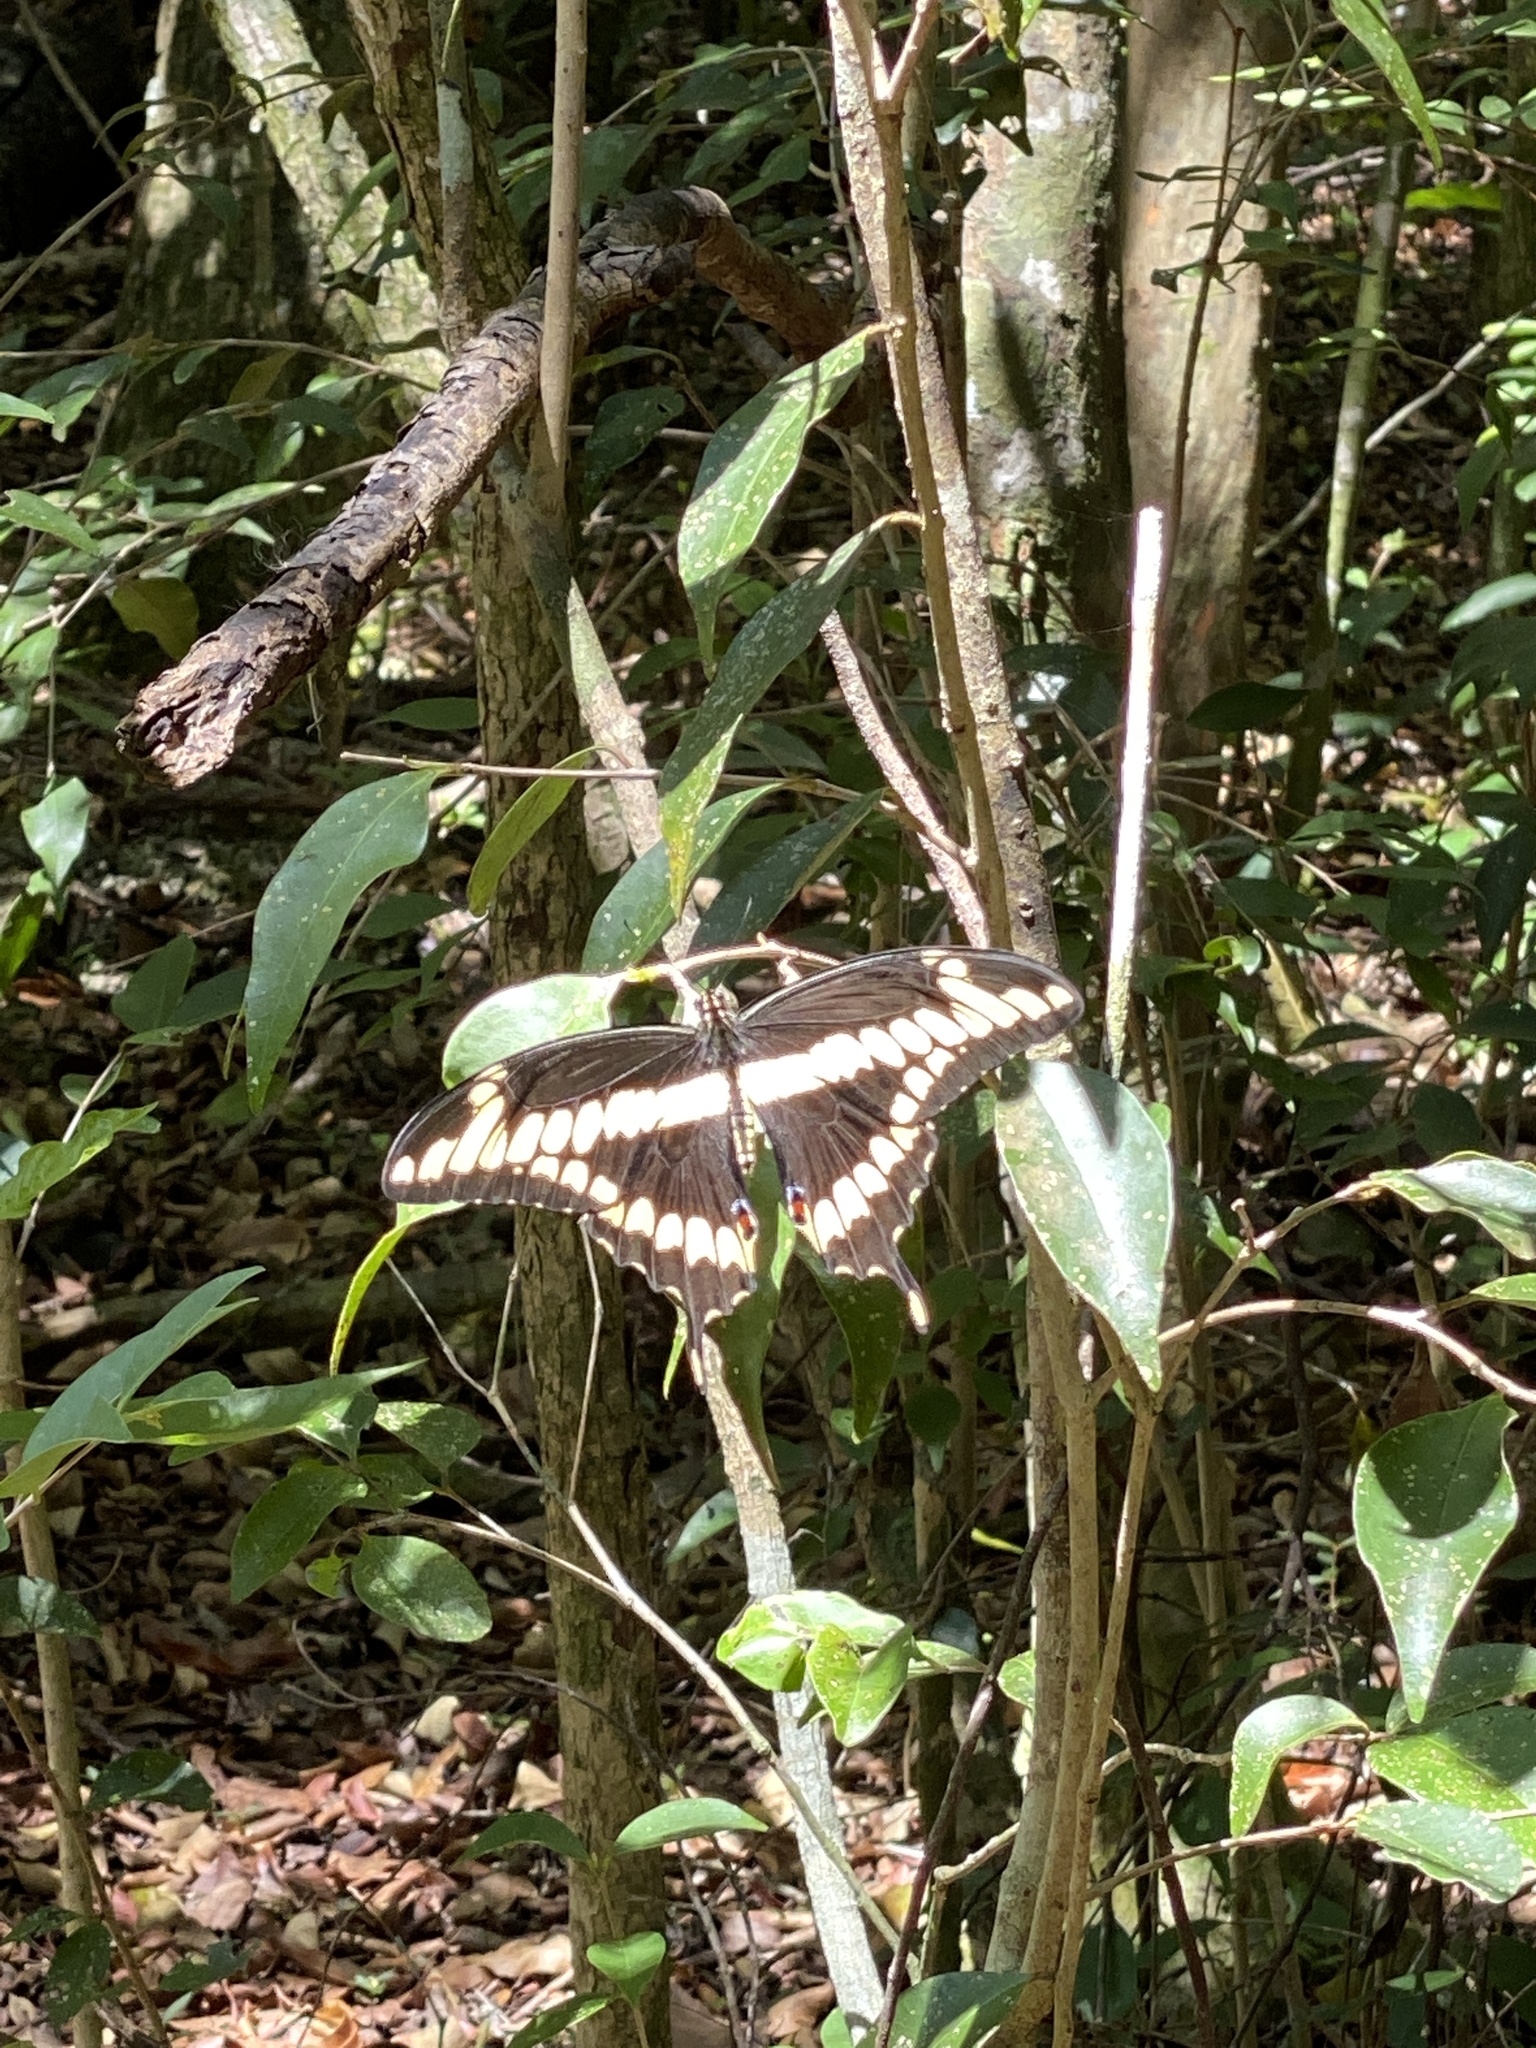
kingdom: Animalia
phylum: Arthropoda
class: Insecta
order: Lepidoptera
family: Papilionidae
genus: Papilio
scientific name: Papilio cresphontes
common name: Giant swallowtail
